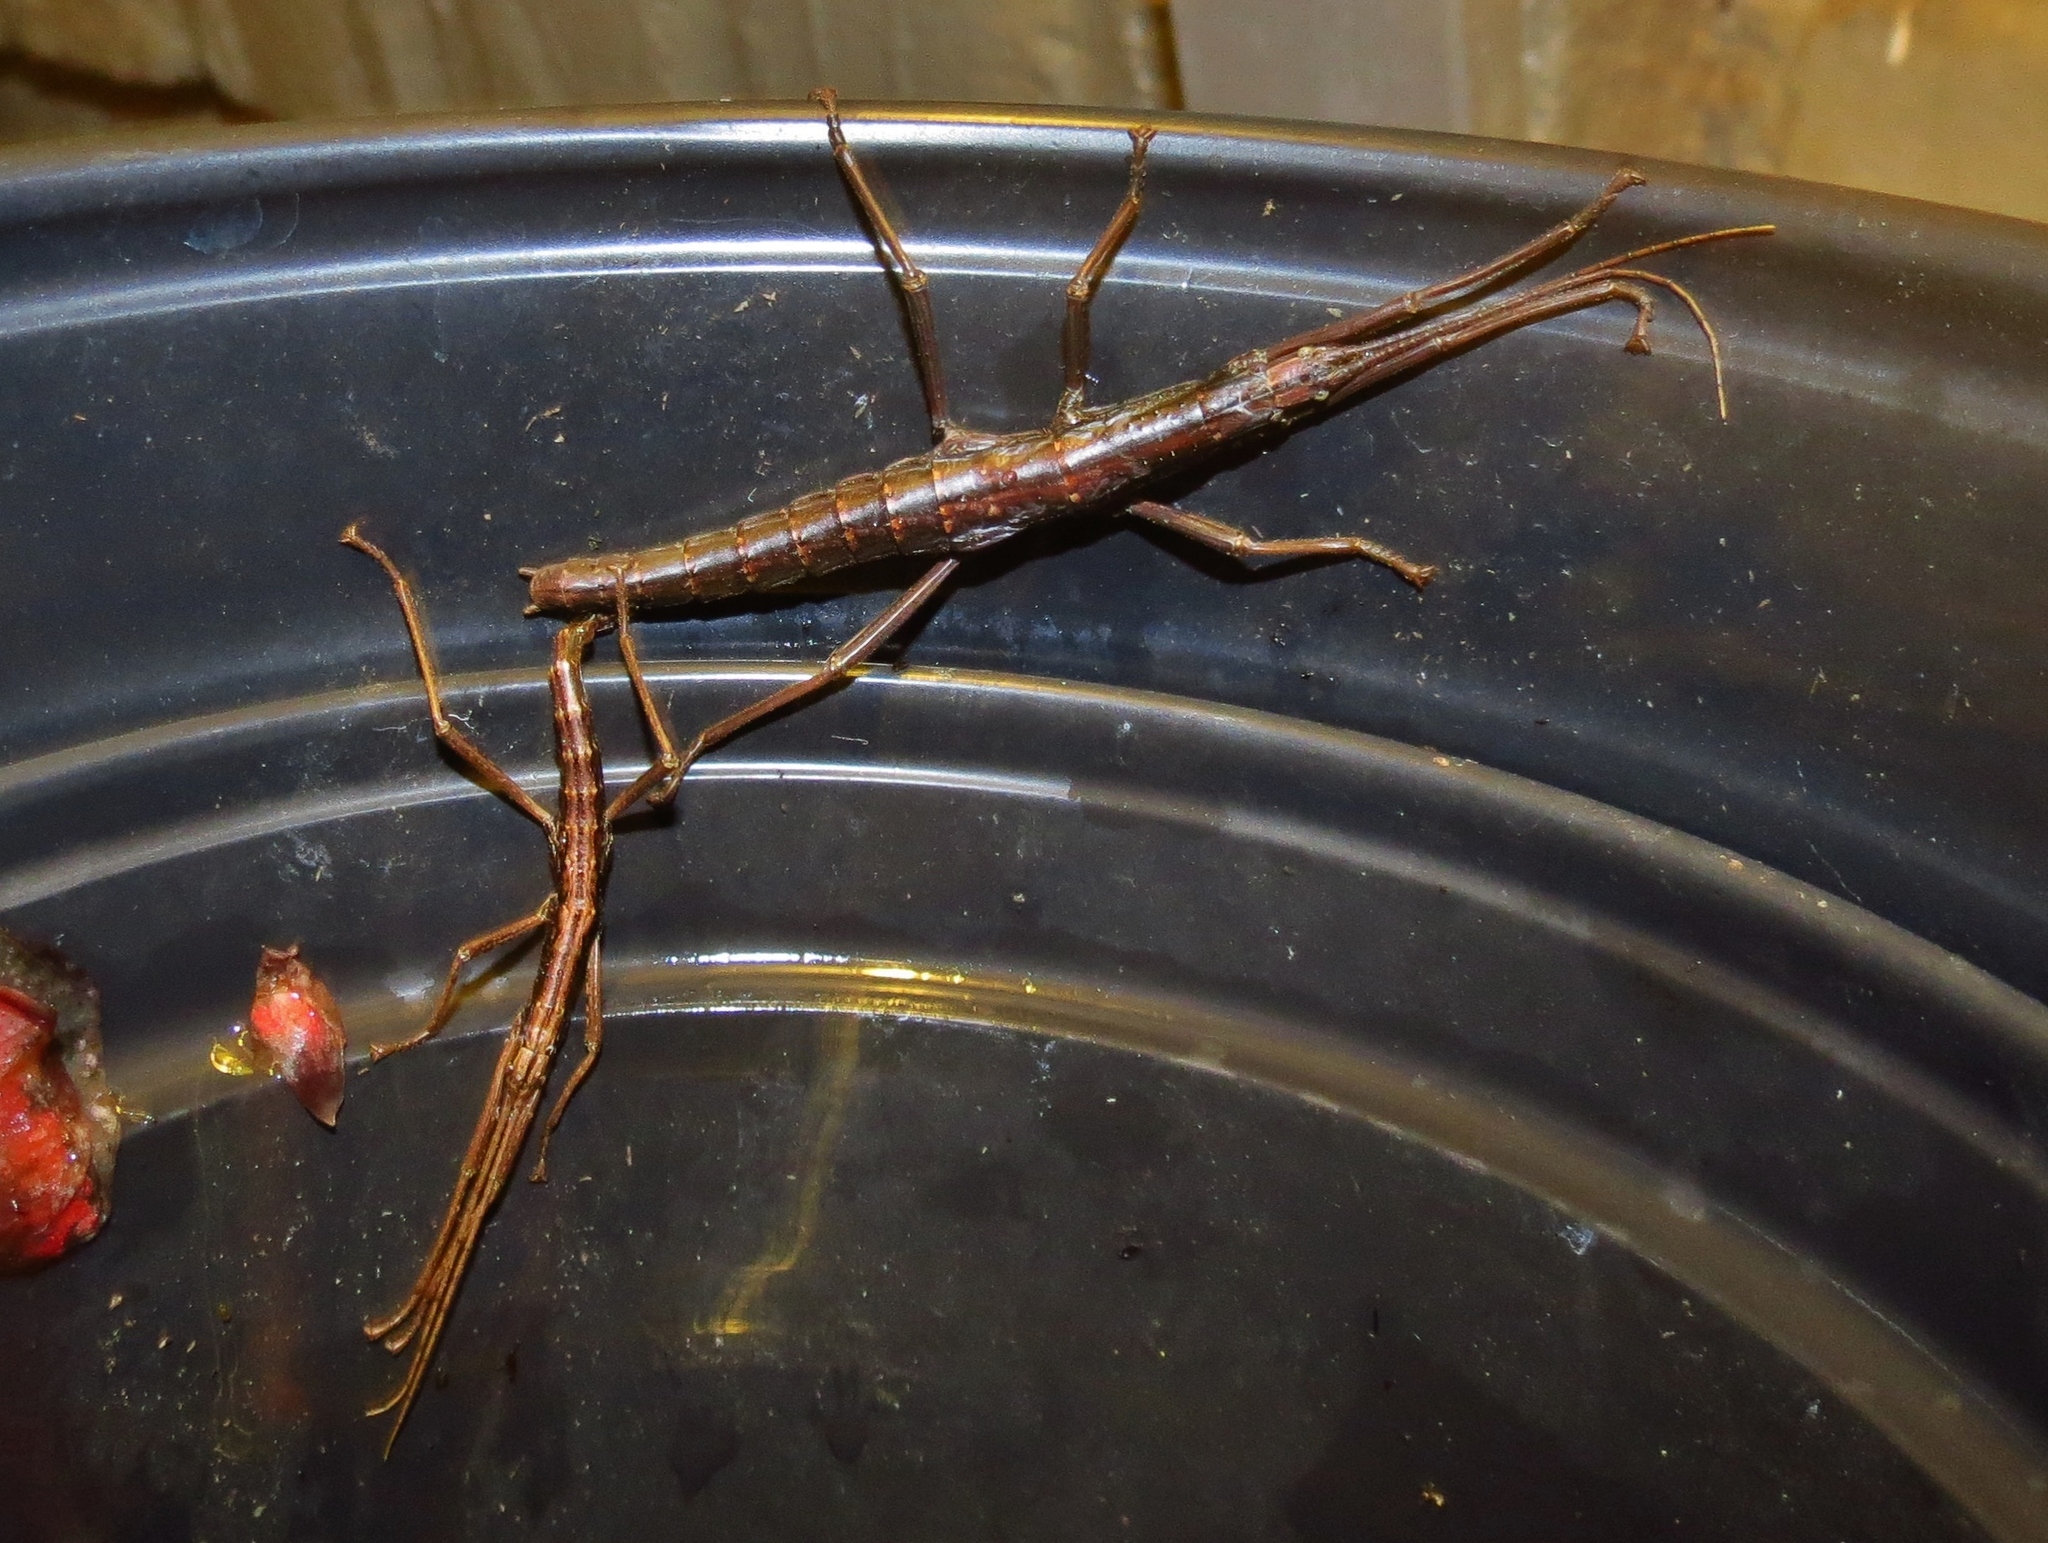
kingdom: Animalia
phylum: Arthropoda
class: Insecta
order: Phasmida
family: Pseudophasmatidae
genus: Anisomorpha
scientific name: Anisomorpha buprestoides
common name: Florida stick insect
